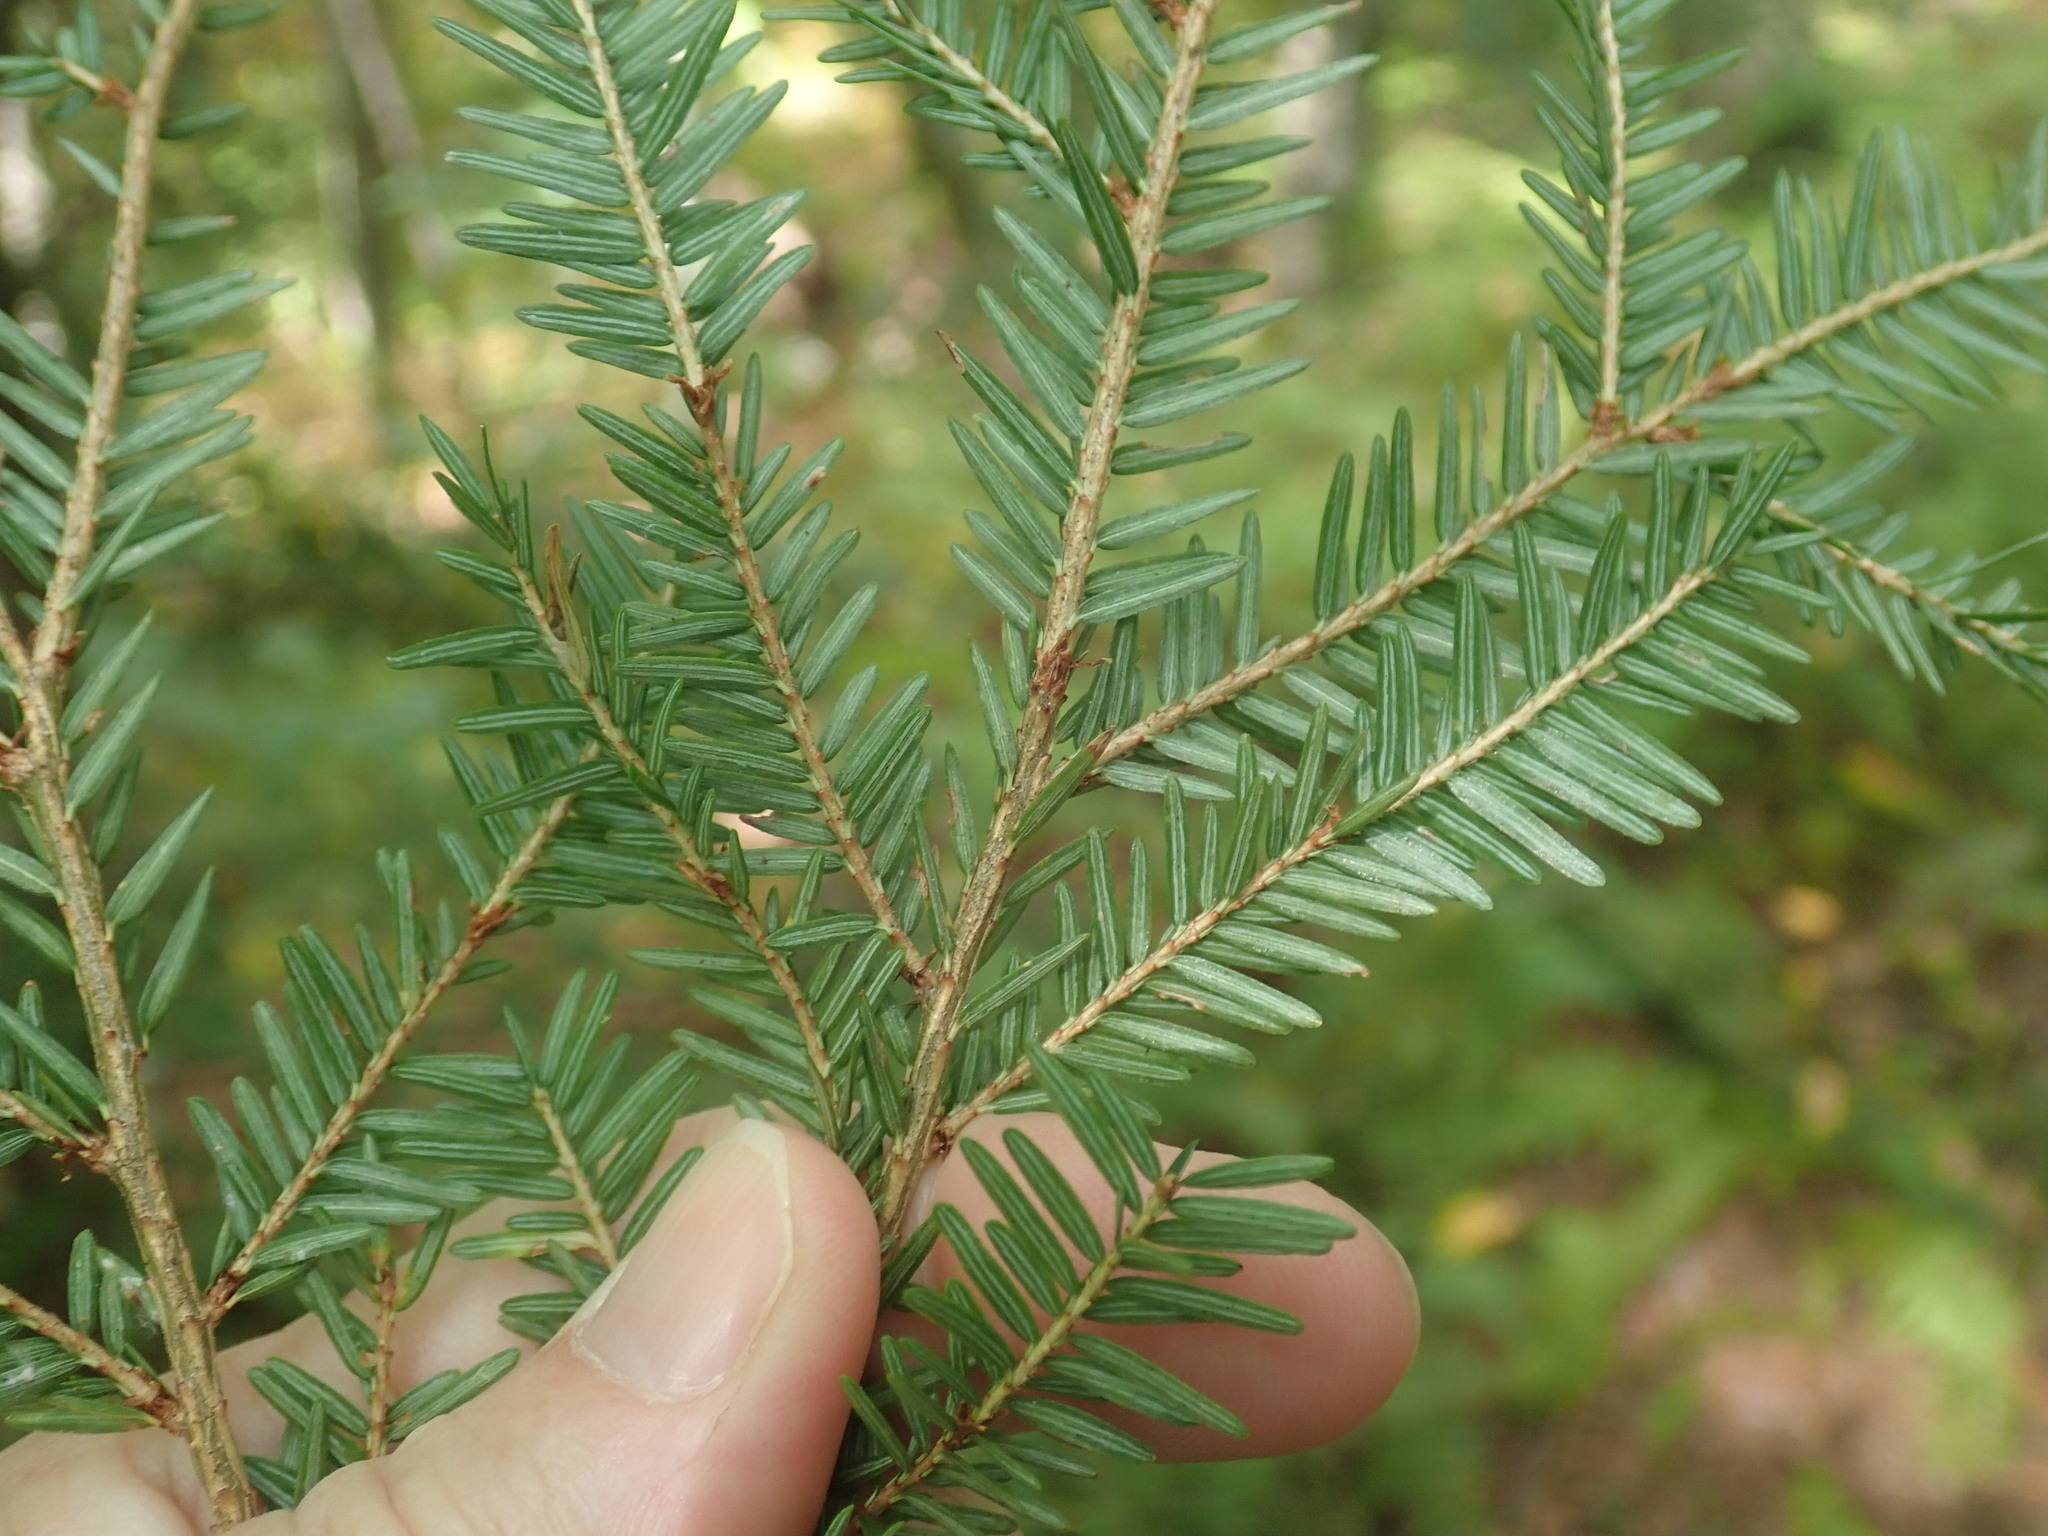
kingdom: Plantae
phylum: Tracheophyta
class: Pinopsida
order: Pinales
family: Pinaceae
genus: Tsuga
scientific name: Tsuga canadensis
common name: Eastern hemlock
